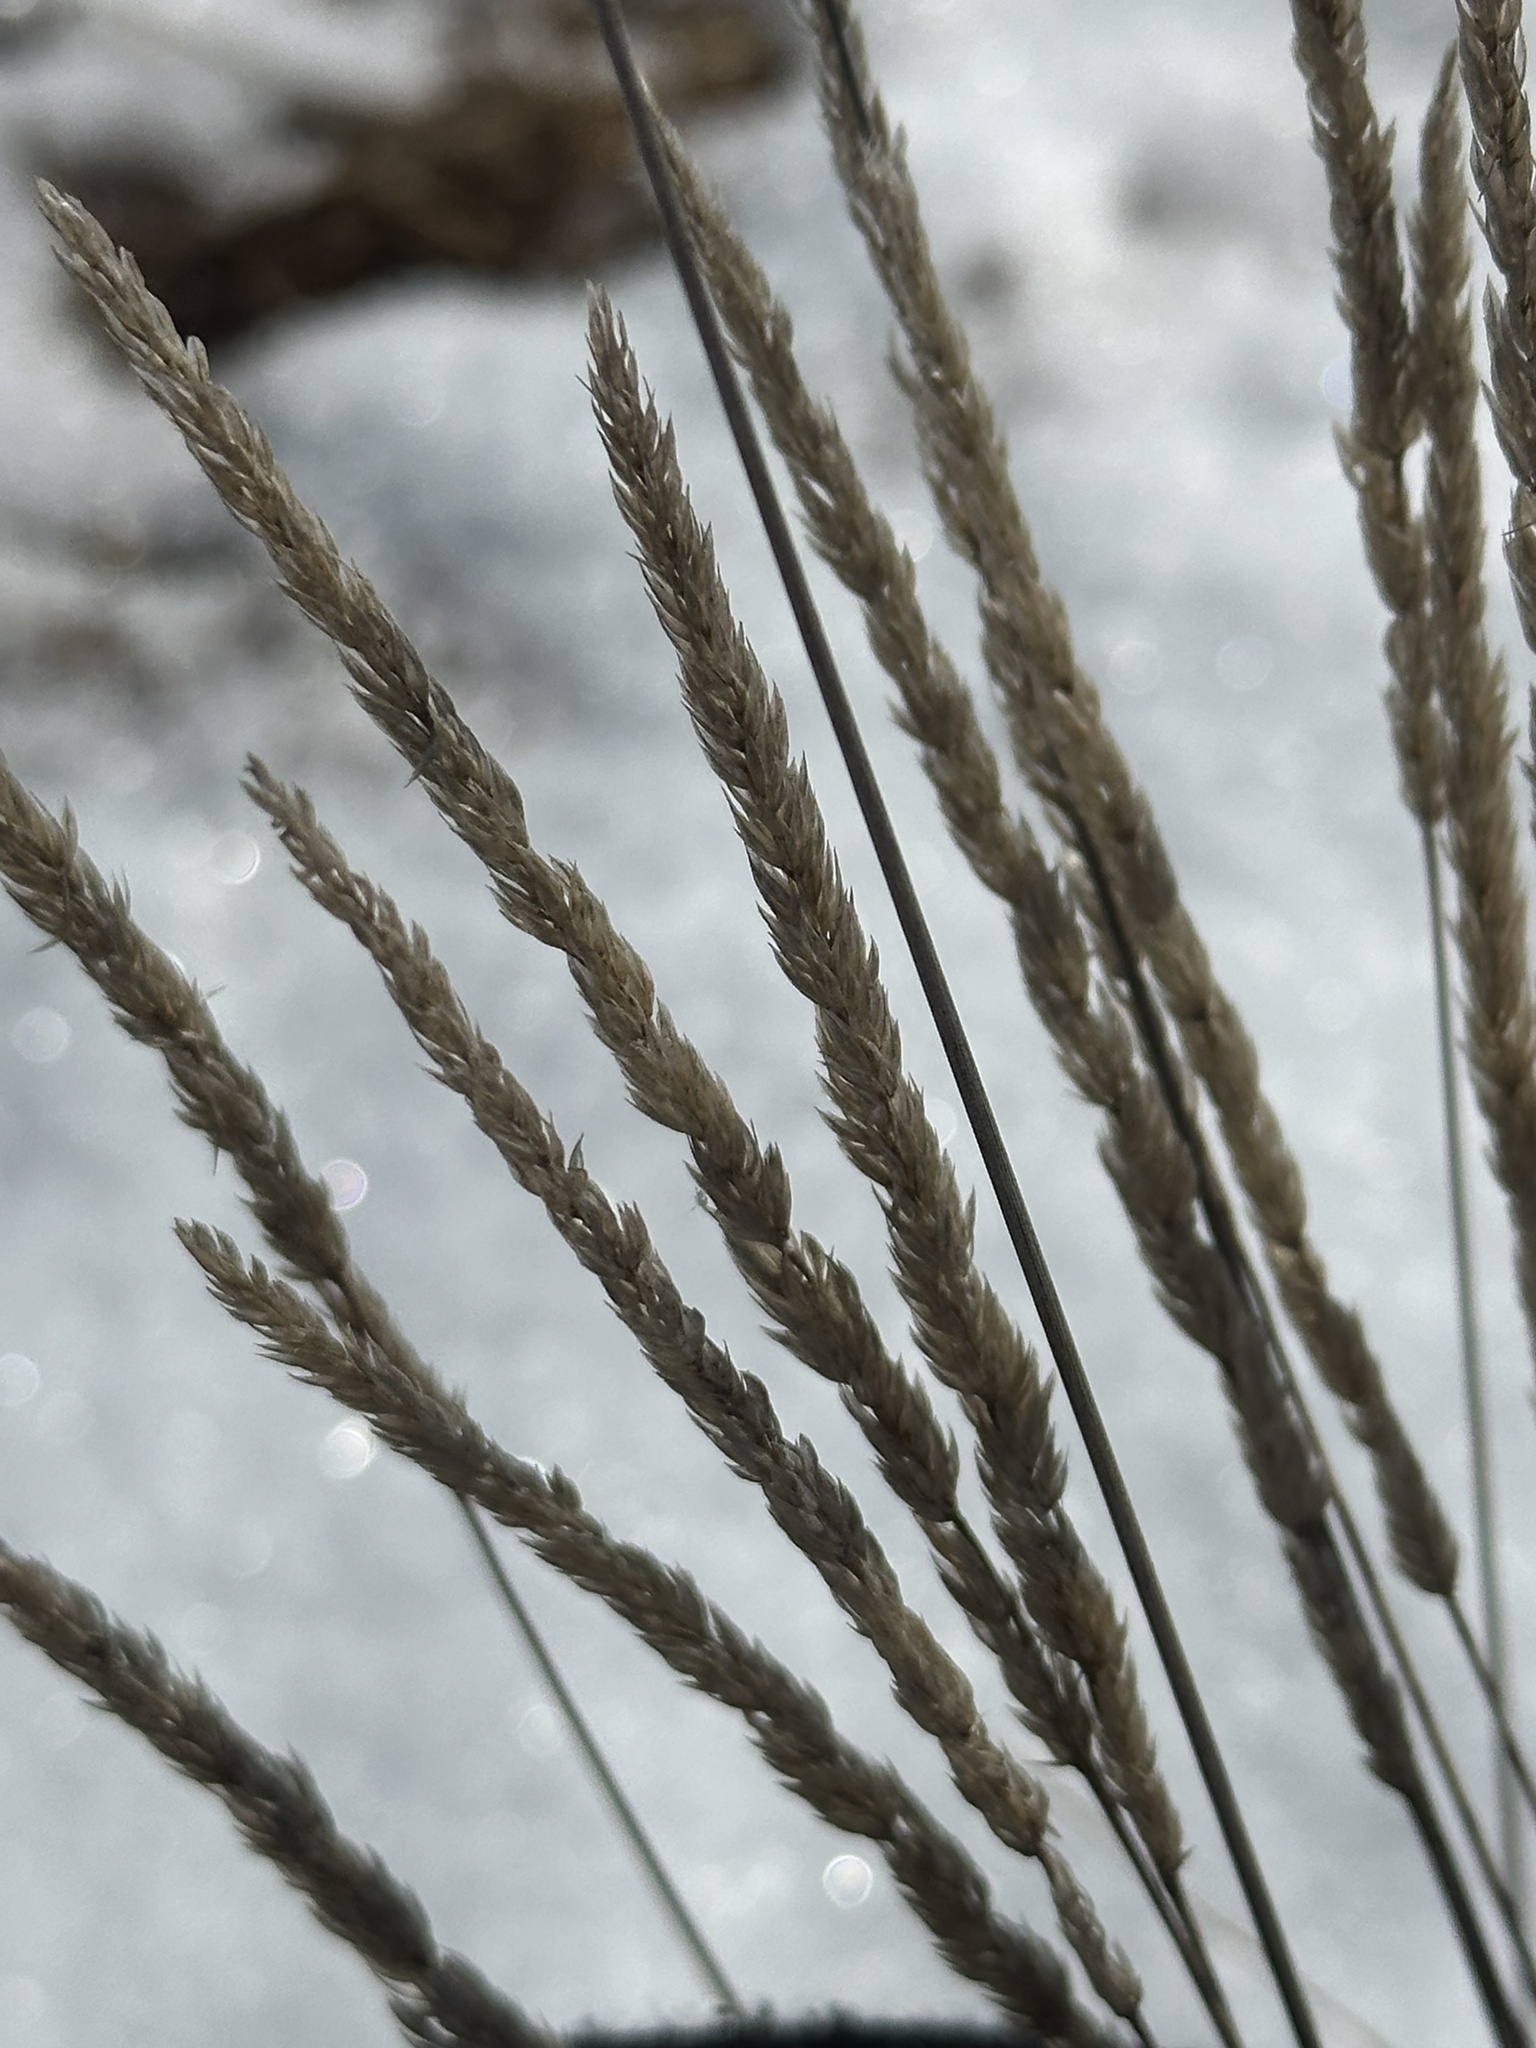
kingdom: Plantae
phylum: Tracheophyta
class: Liliopsida
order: Poales
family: Poaceae
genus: Koeleria
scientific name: Koeleria macrantha
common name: Crested hair-grass
